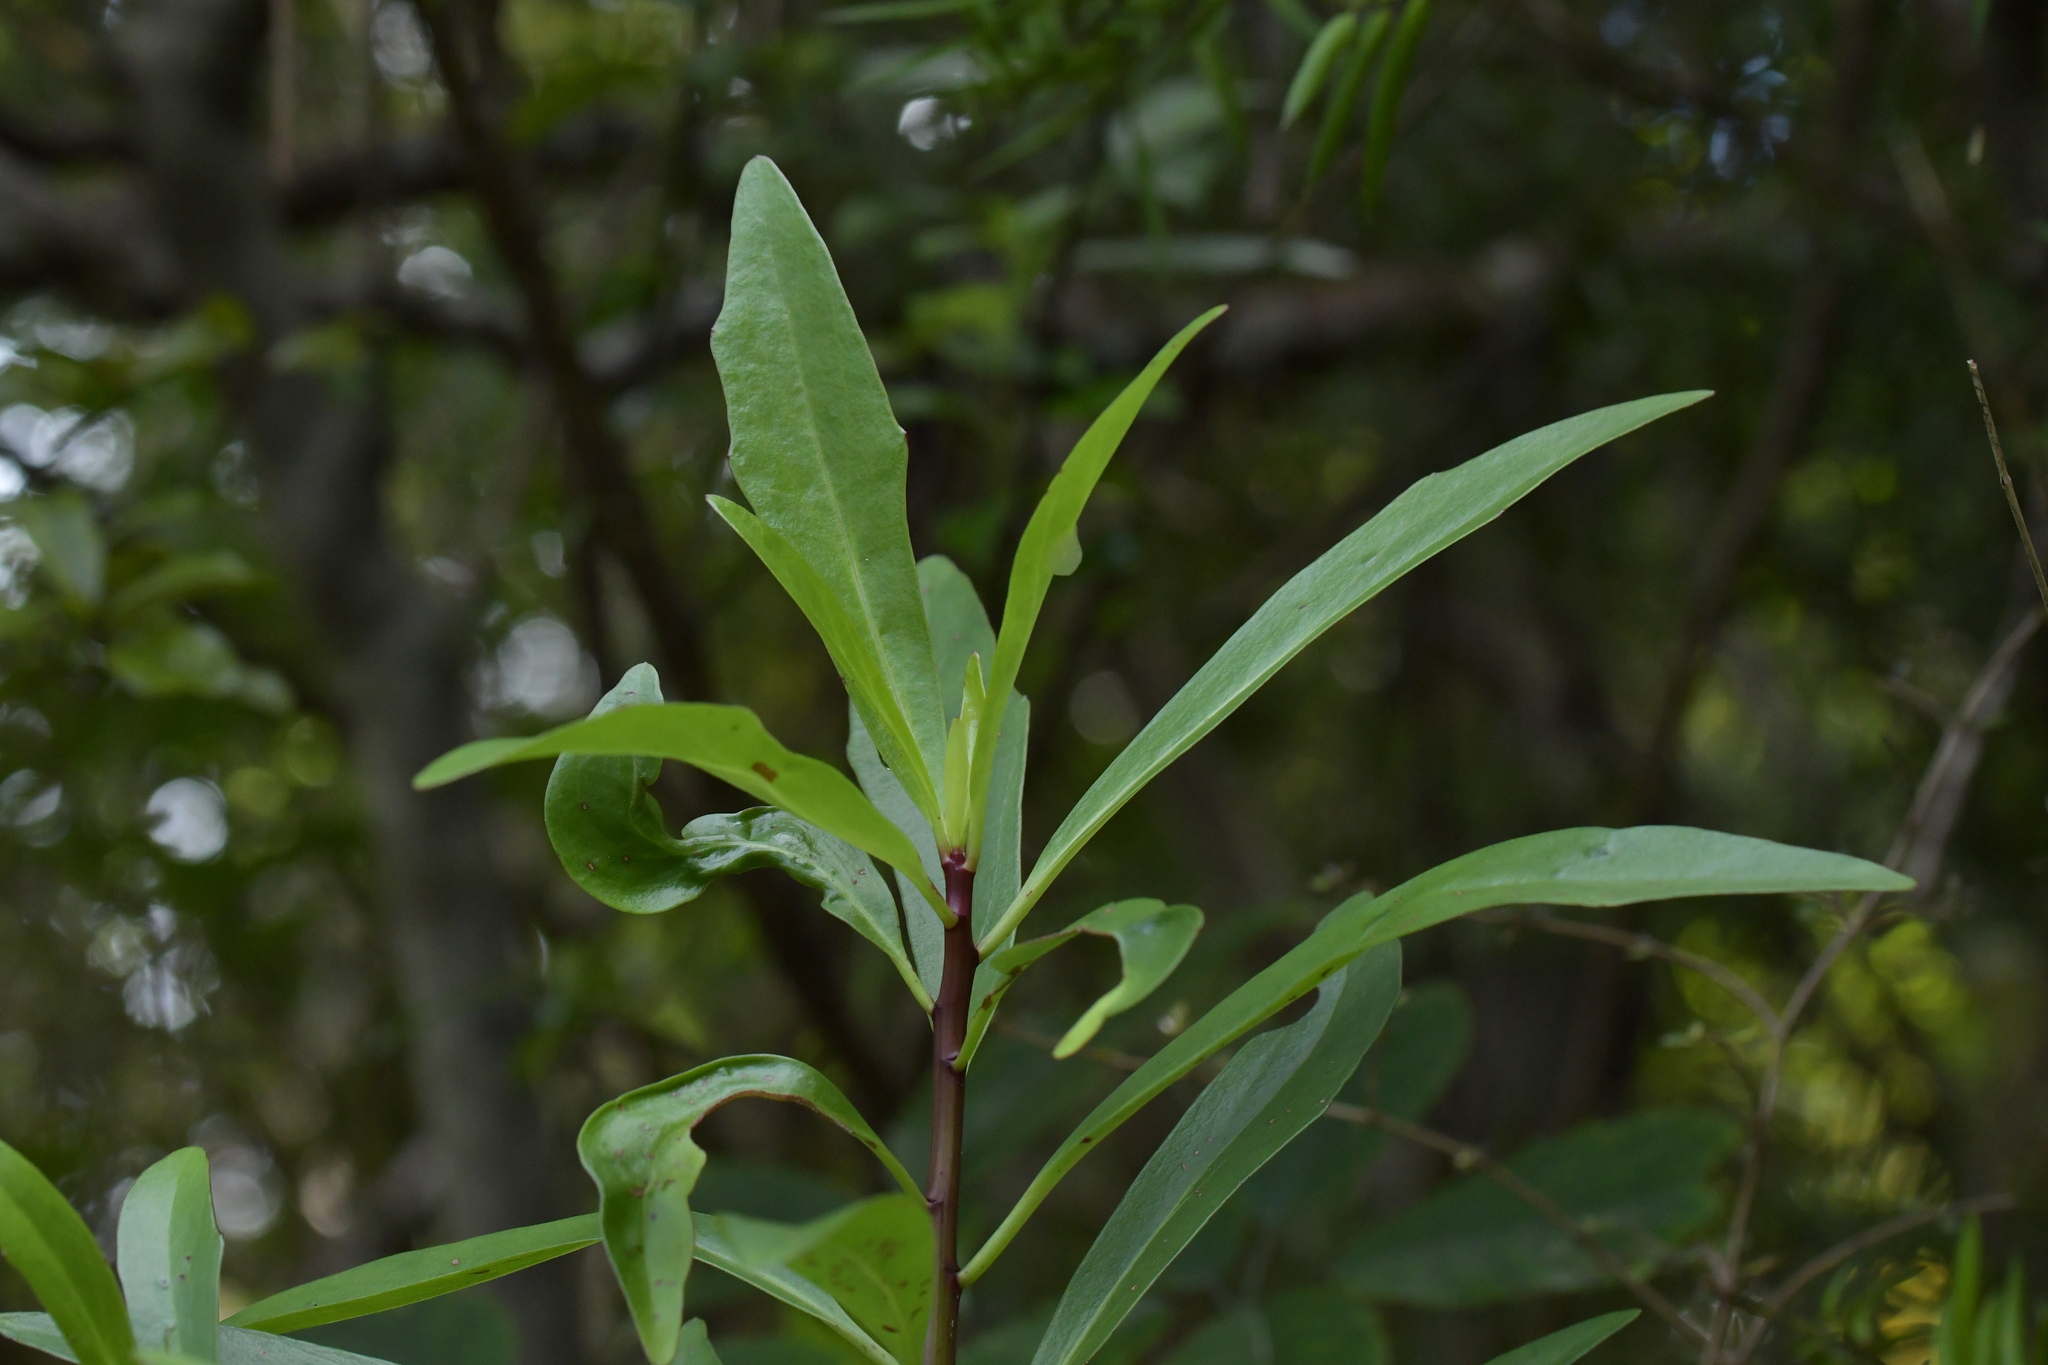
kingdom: Plantae
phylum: Tracheophyta
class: Magnoliopsida
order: Asterales
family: Asteraceae
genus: Brachyglottis
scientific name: Brachyglottis kirkii
